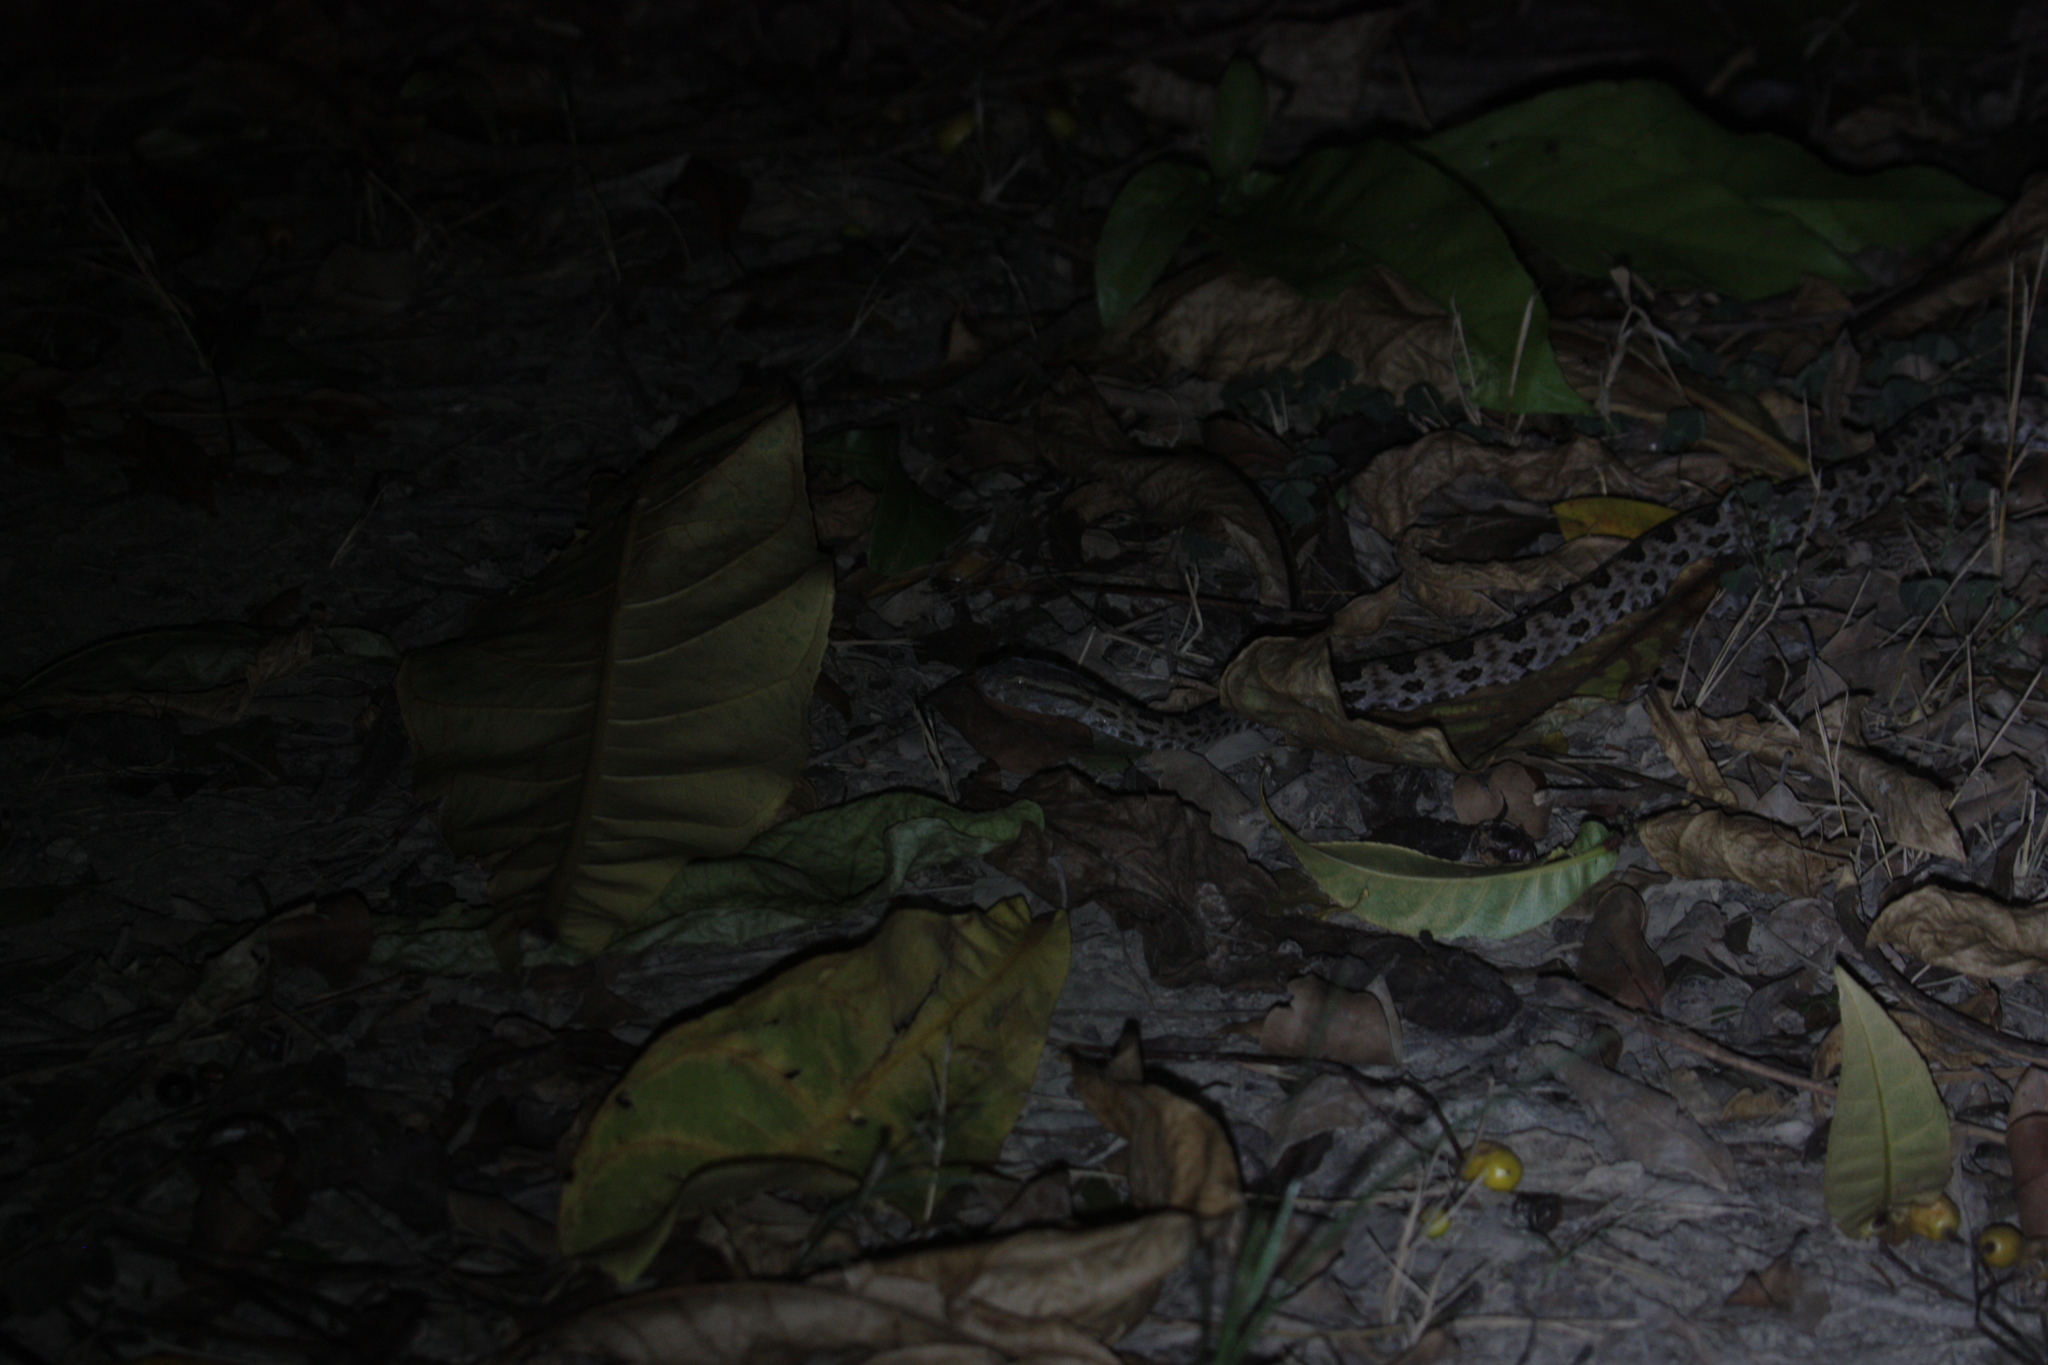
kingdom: Animalia
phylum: Chordata
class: Squamata
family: Viperidae
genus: Protobothrops
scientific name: Protobothrops mucrosquamatus
